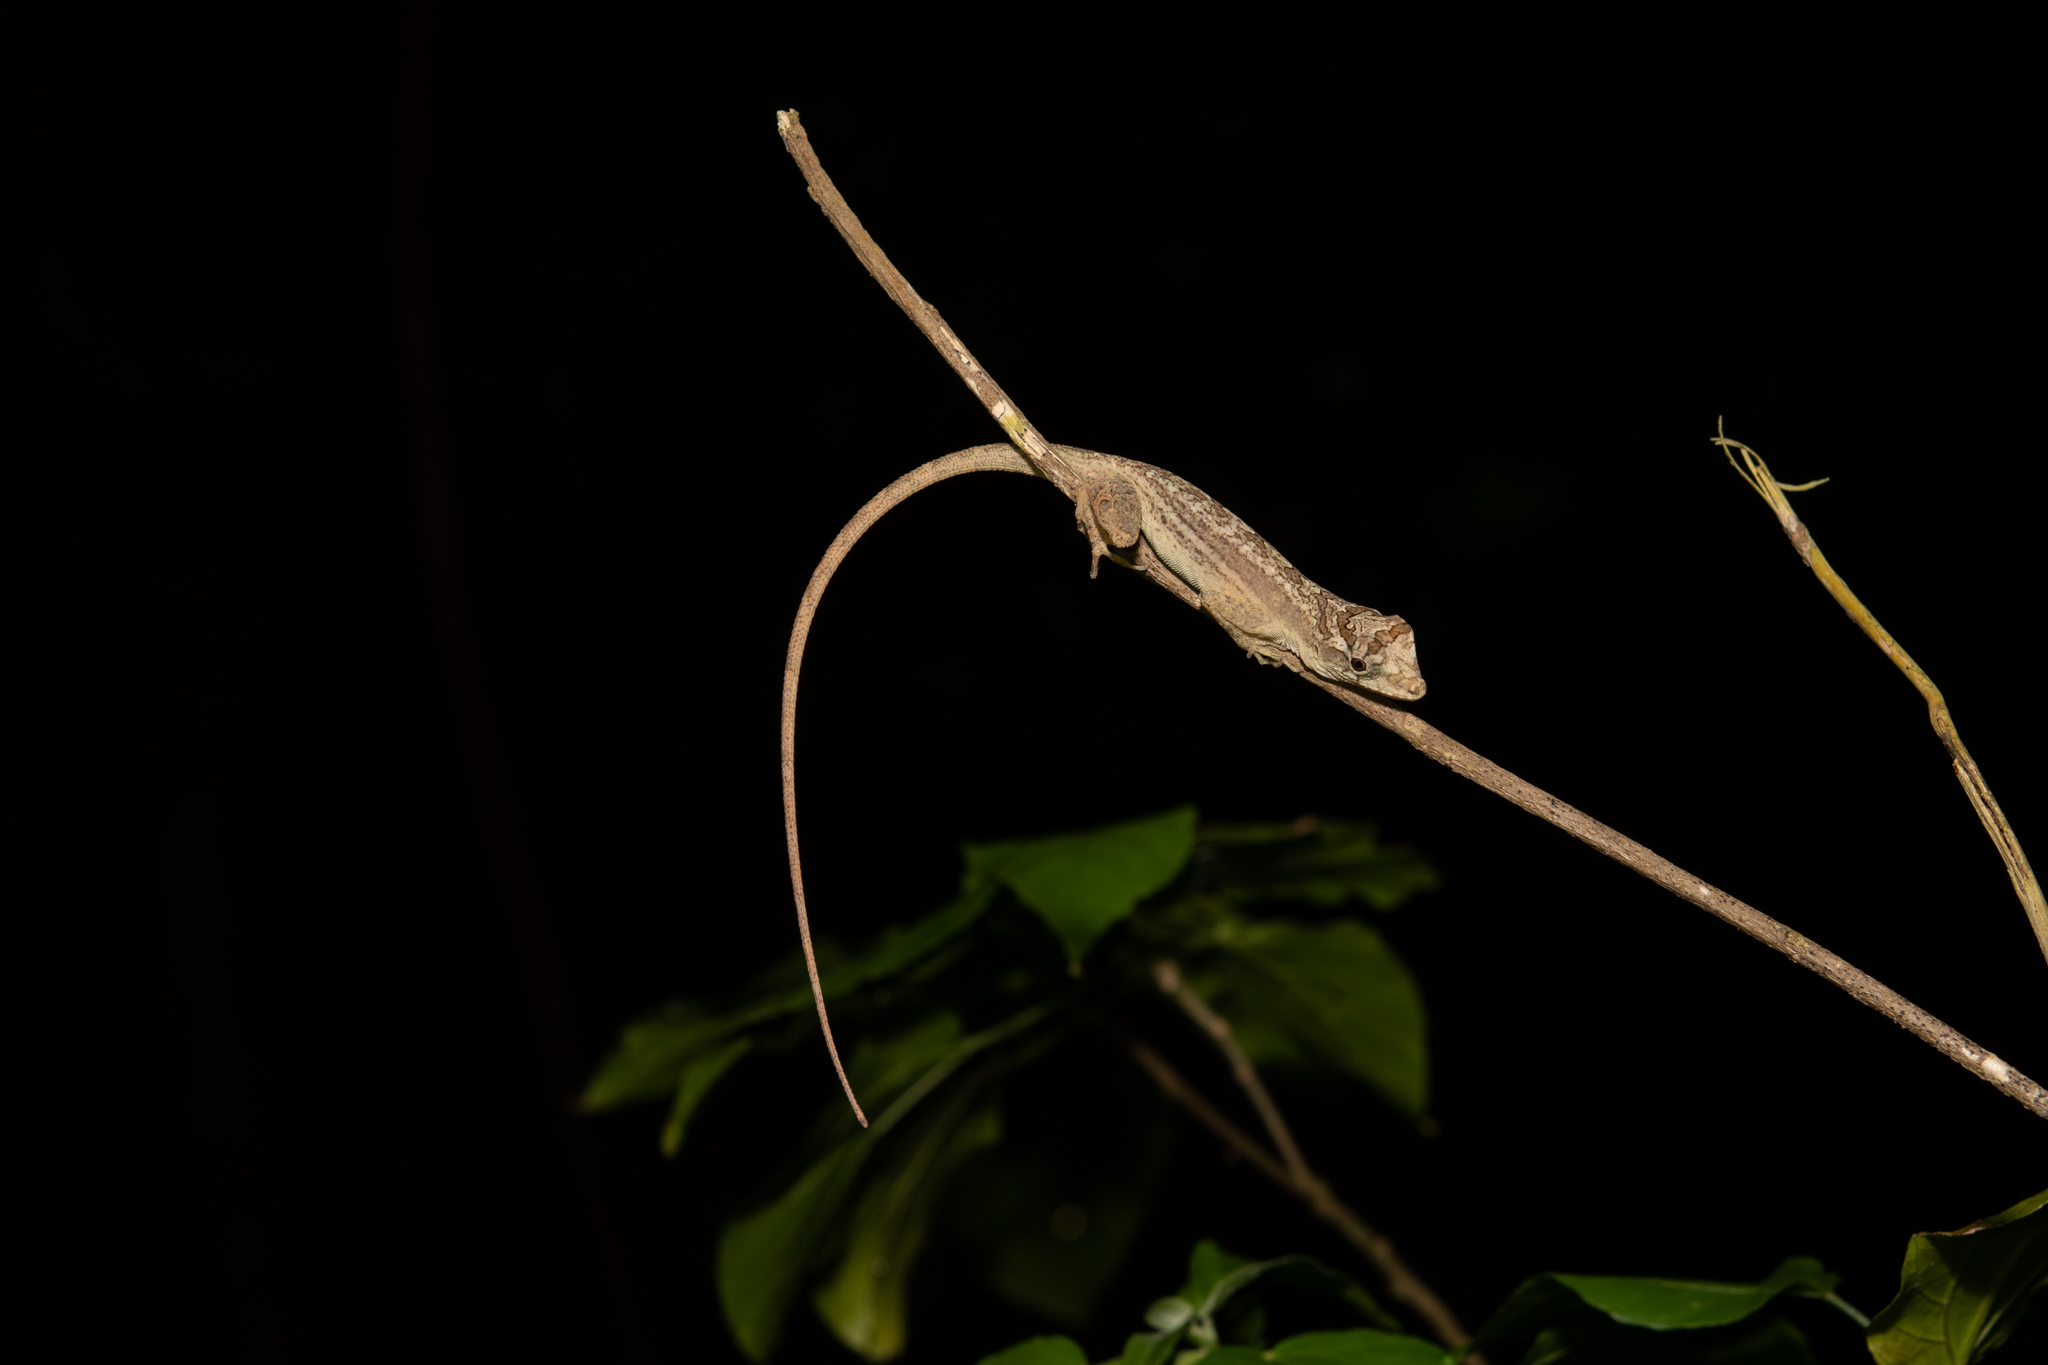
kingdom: Animalia
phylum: Chordata
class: Squamata
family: Dactyloidae
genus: Anolis
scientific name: Anolis bicaorum
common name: Bay islands anole
